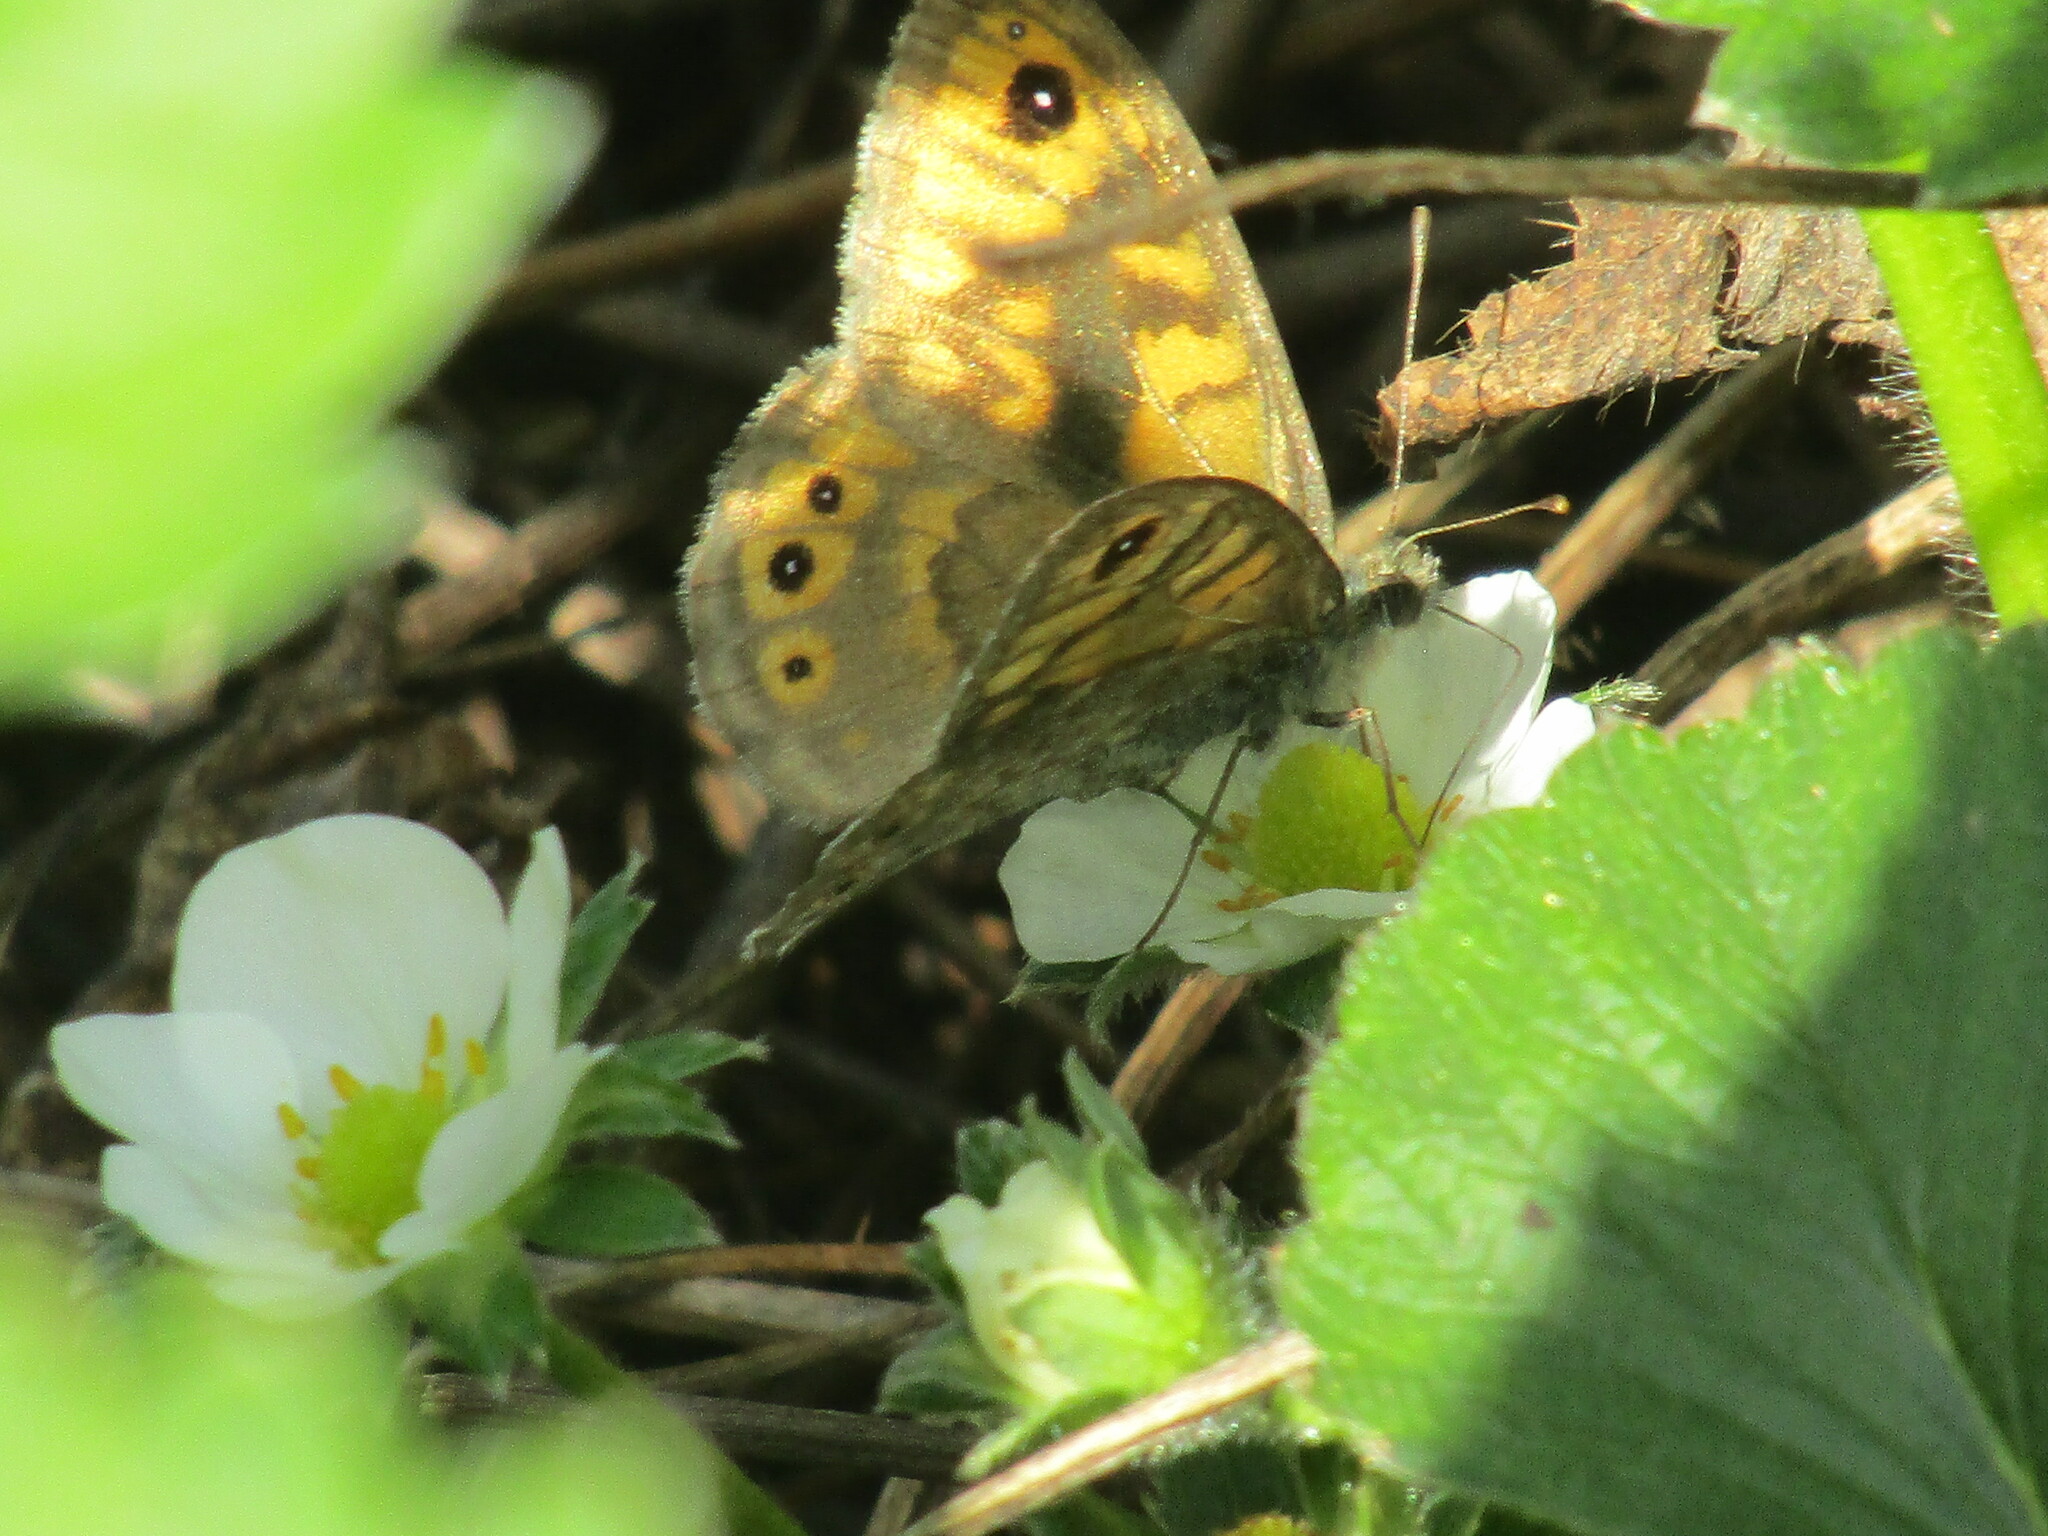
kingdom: Animalia
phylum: Arthropoda
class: Insecta
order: Lepidoptera
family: Nymphalidae
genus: Pararge
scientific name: Pararge Lasiommata megera
